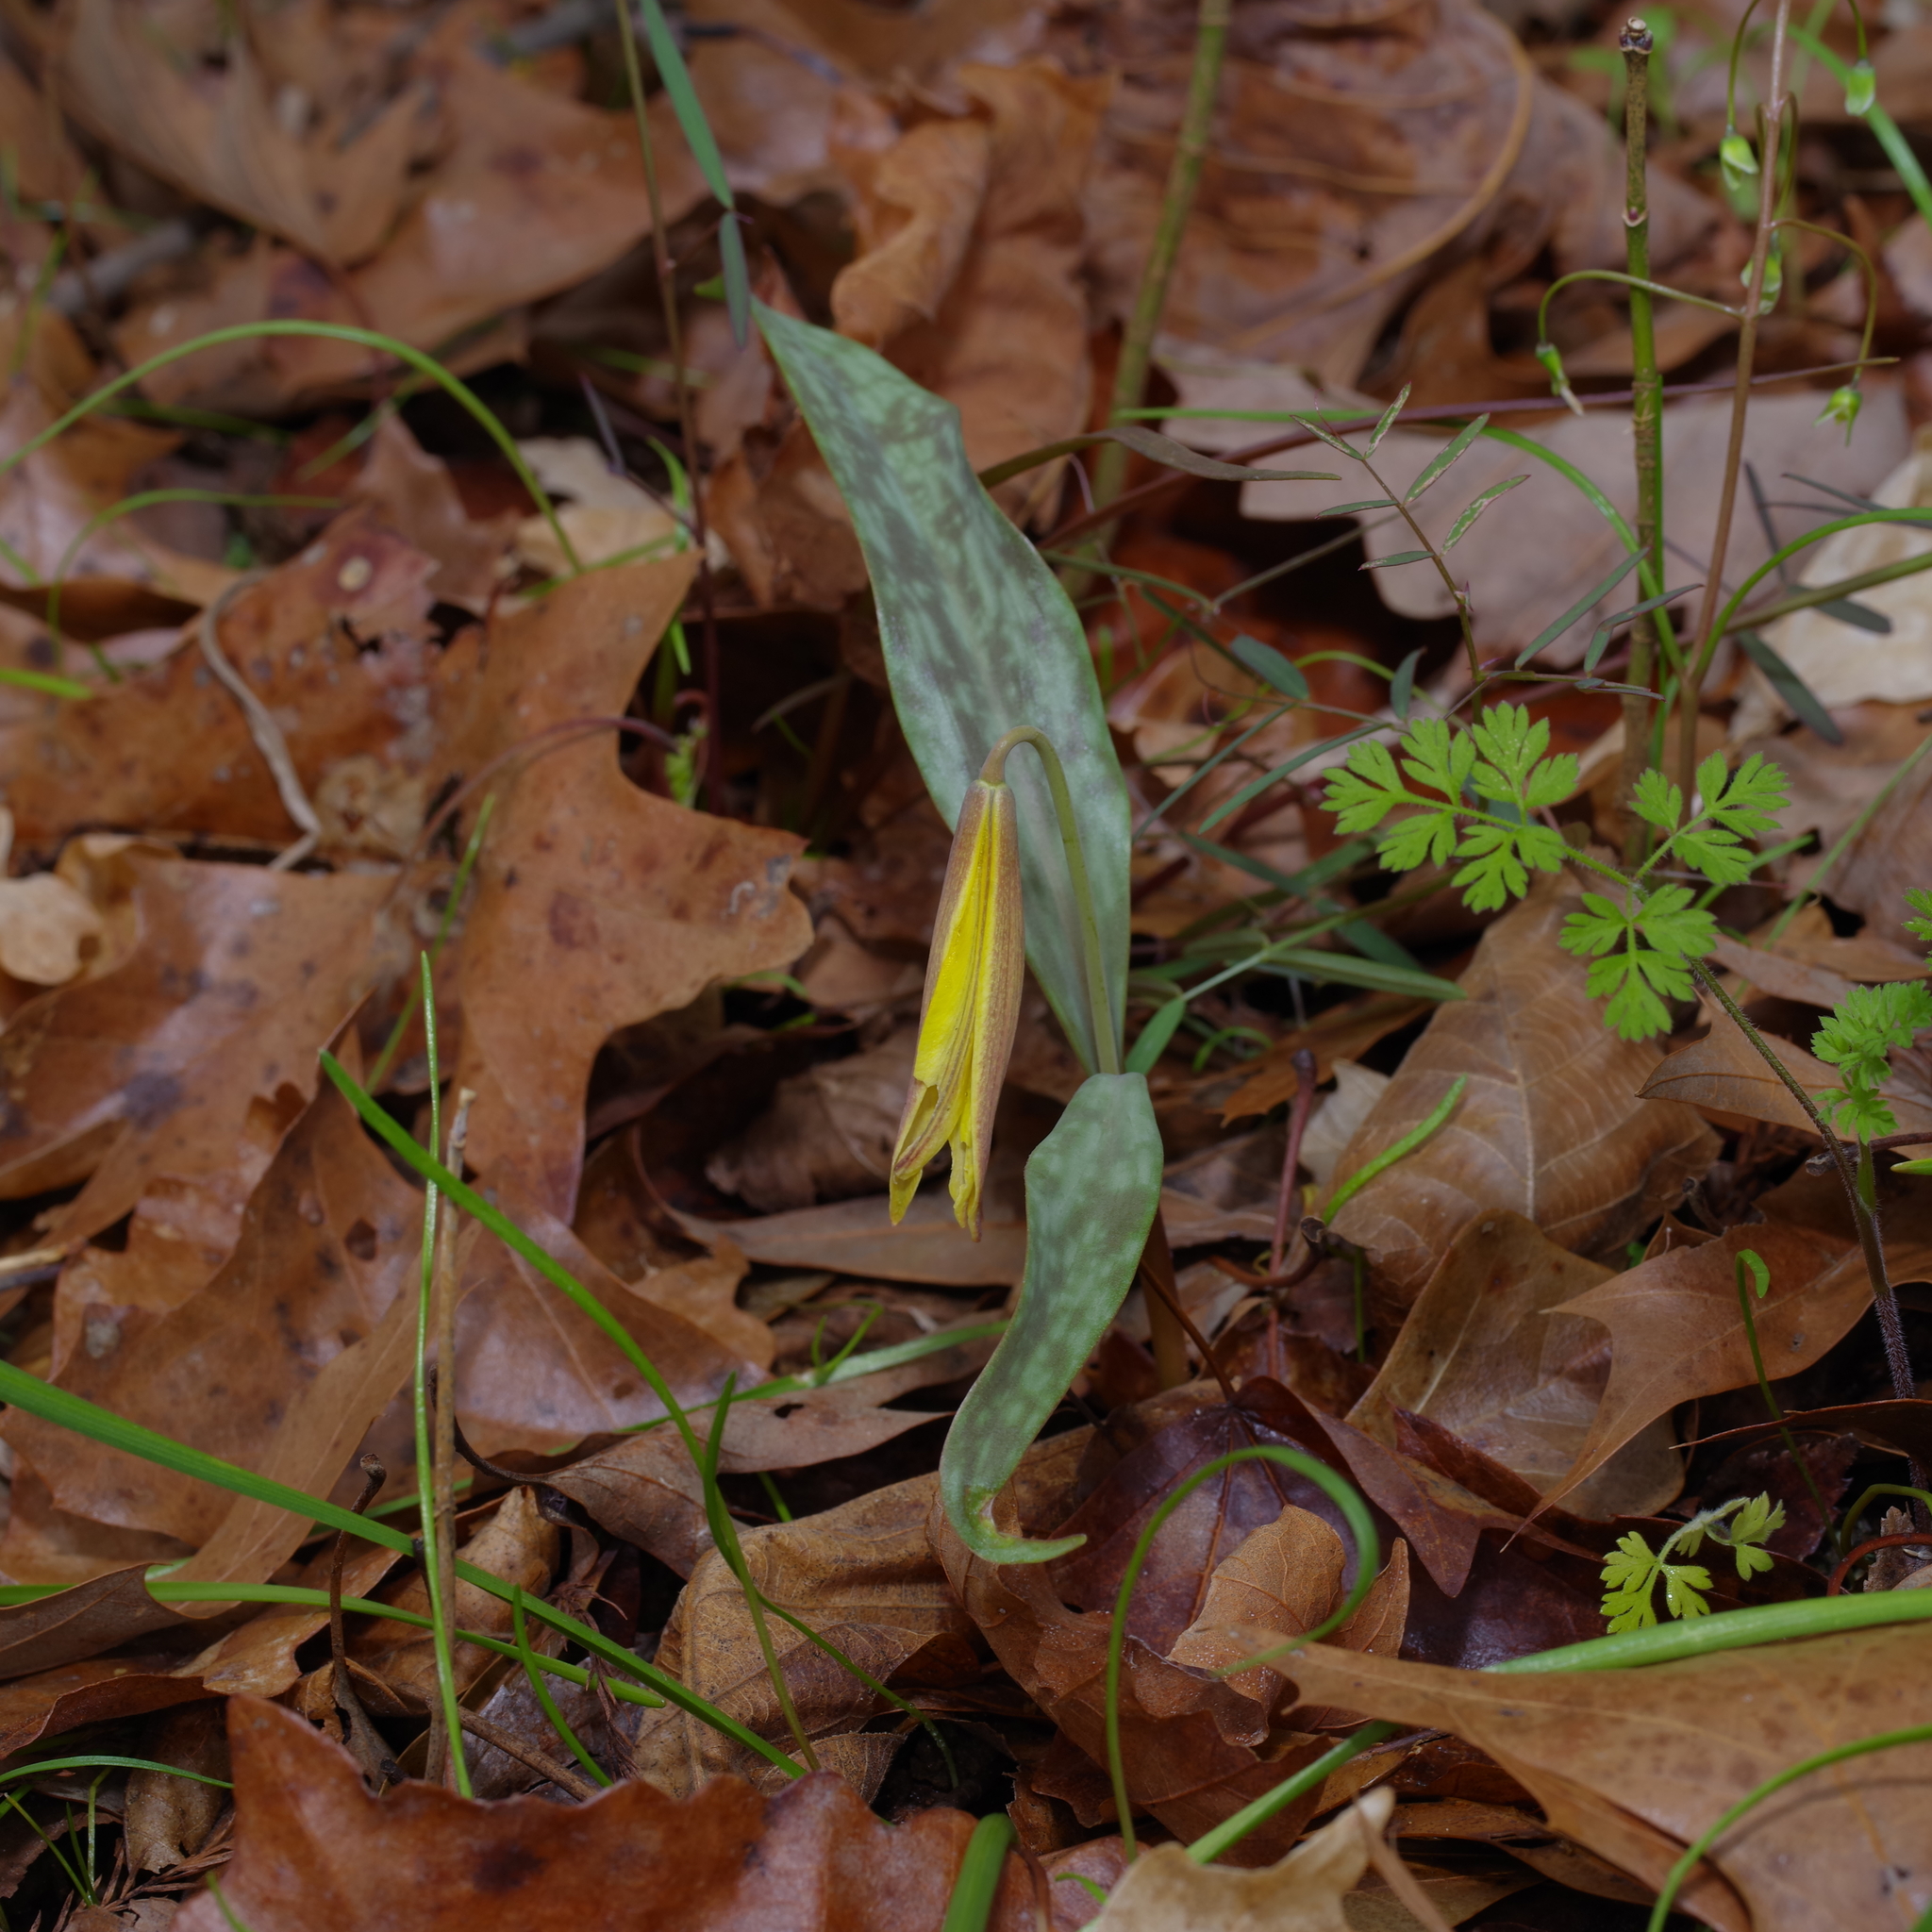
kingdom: Plantae
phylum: Tracheophyta
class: Liliopsida
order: Liliales
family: Liliaceae
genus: Erythronium
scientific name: Erythronium rostratum
